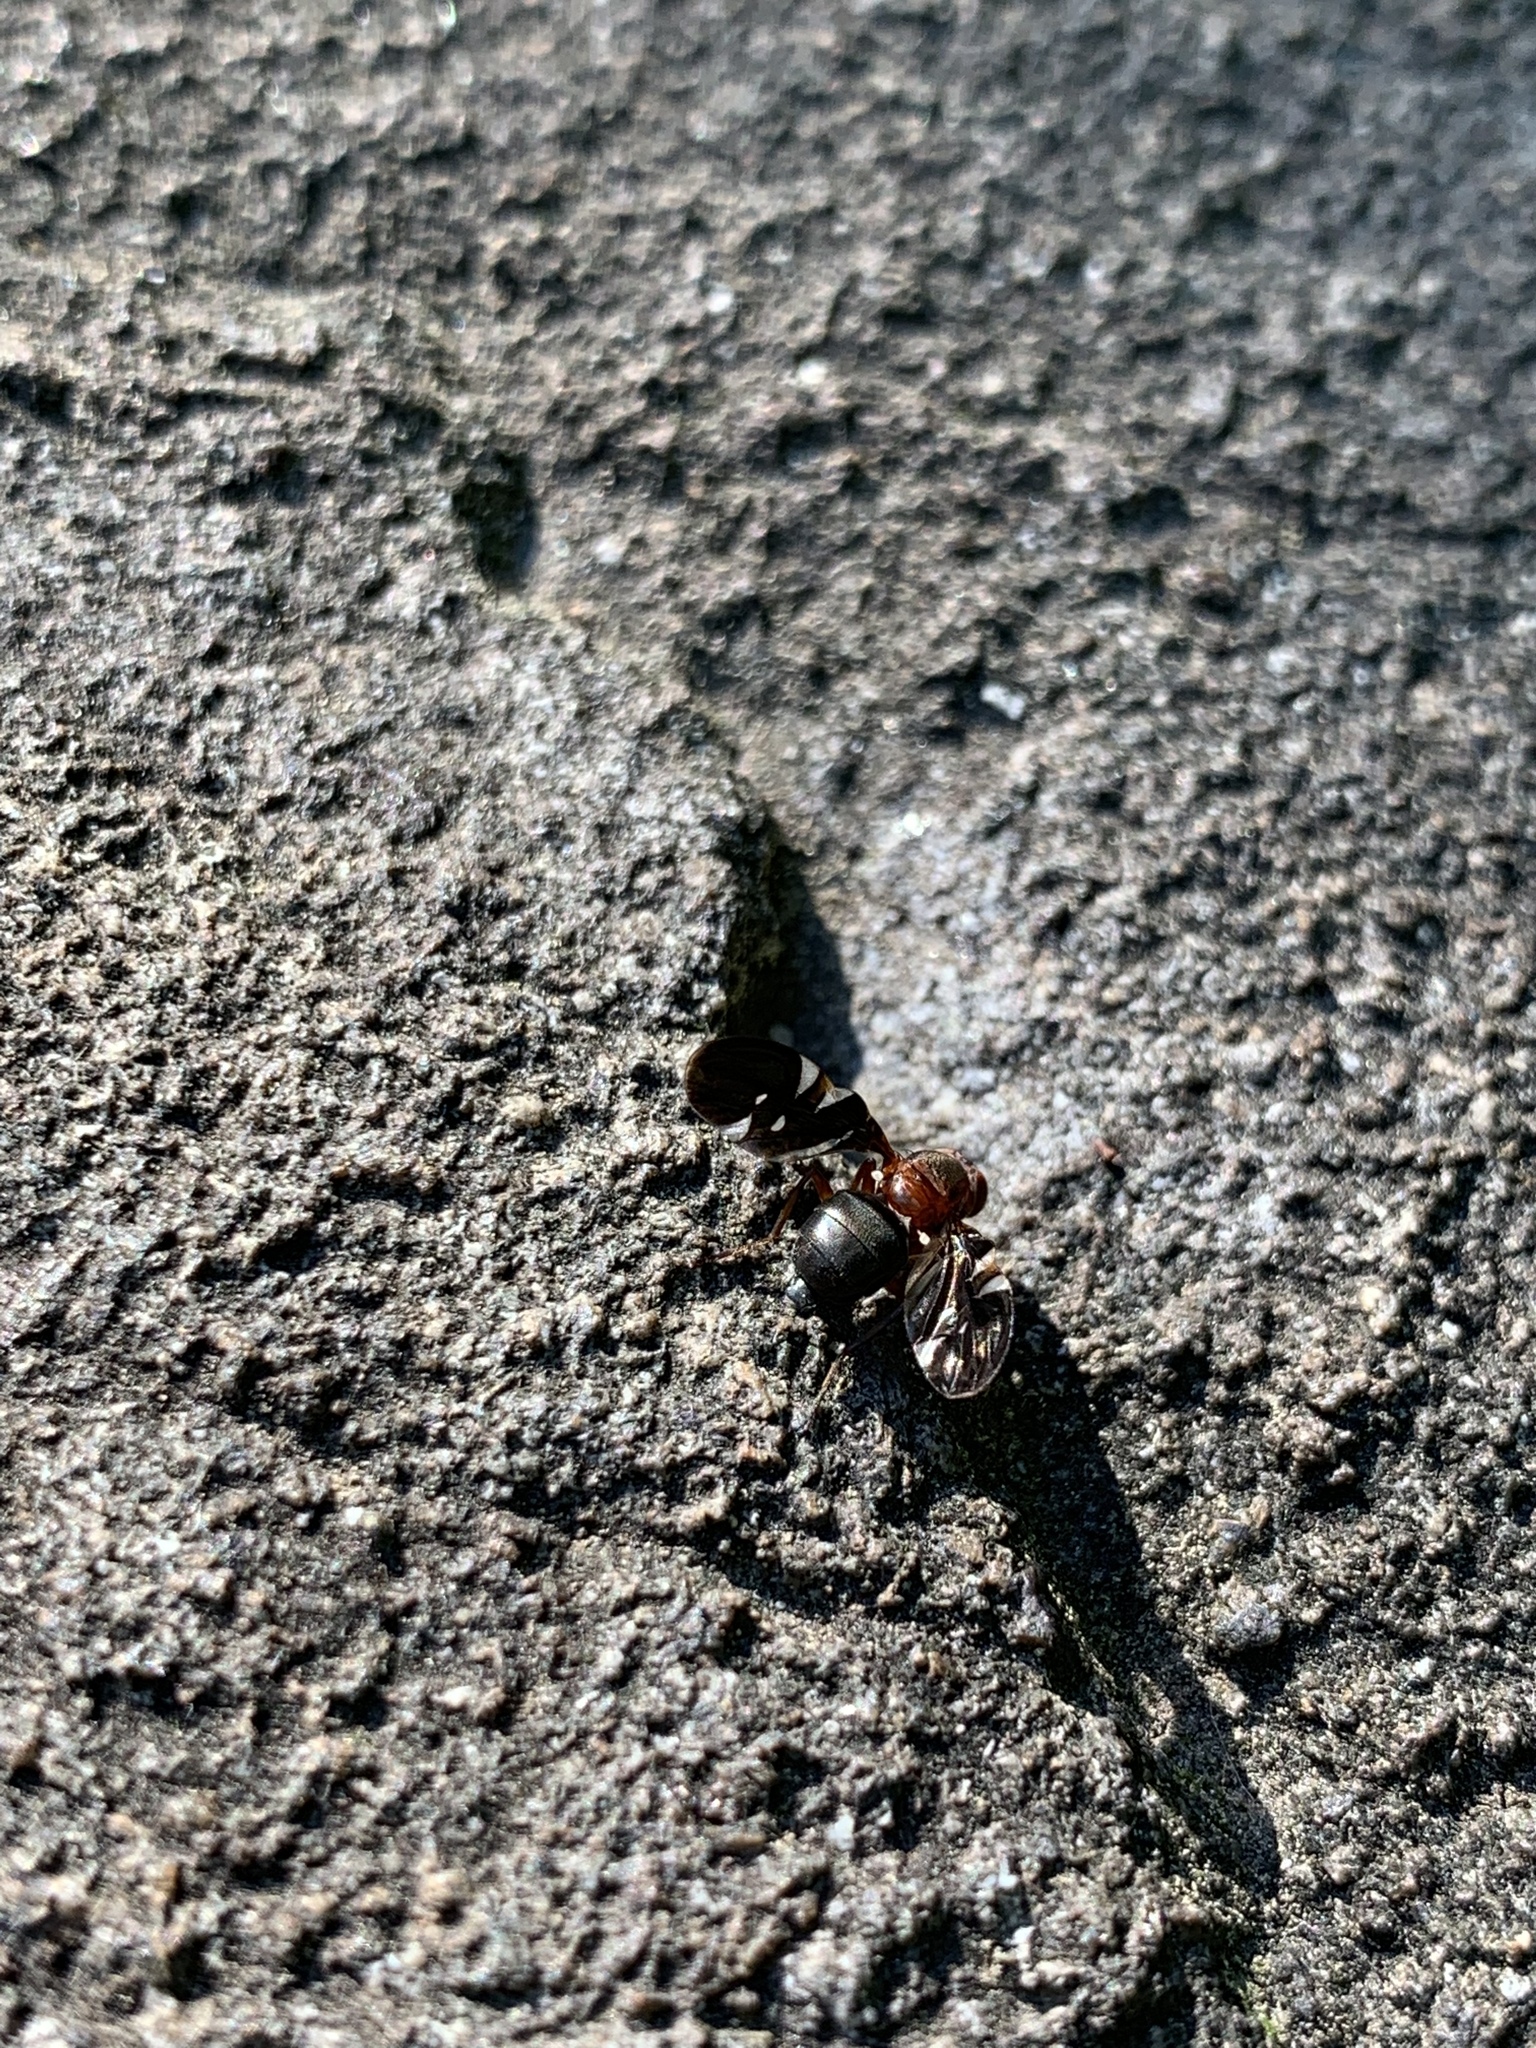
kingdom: Animalia
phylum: Arthropoda
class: Insecta
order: Diptera
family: Ulidiidae
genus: Delphinia
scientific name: Delphinia picta
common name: Common picture-winged fly
